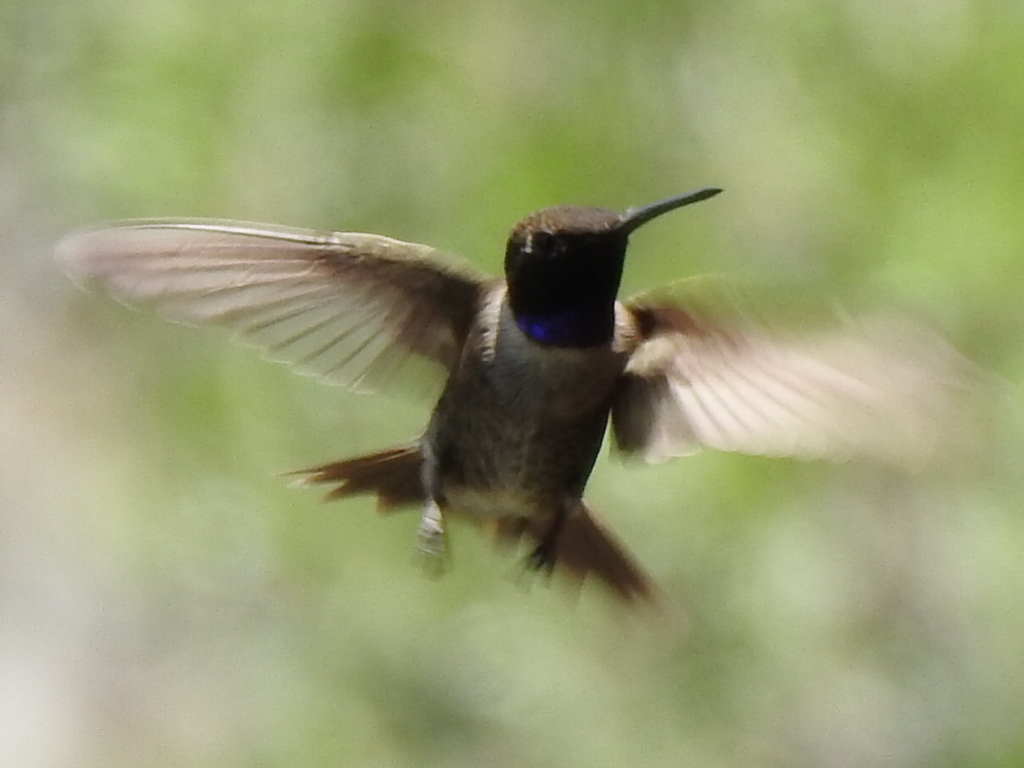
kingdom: Animalia
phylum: Chordata
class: Aves
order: Apodiformes
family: Trochilidae
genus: Archilochus
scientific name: Archilochus alexandri
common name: Black-chinned hummingbird
